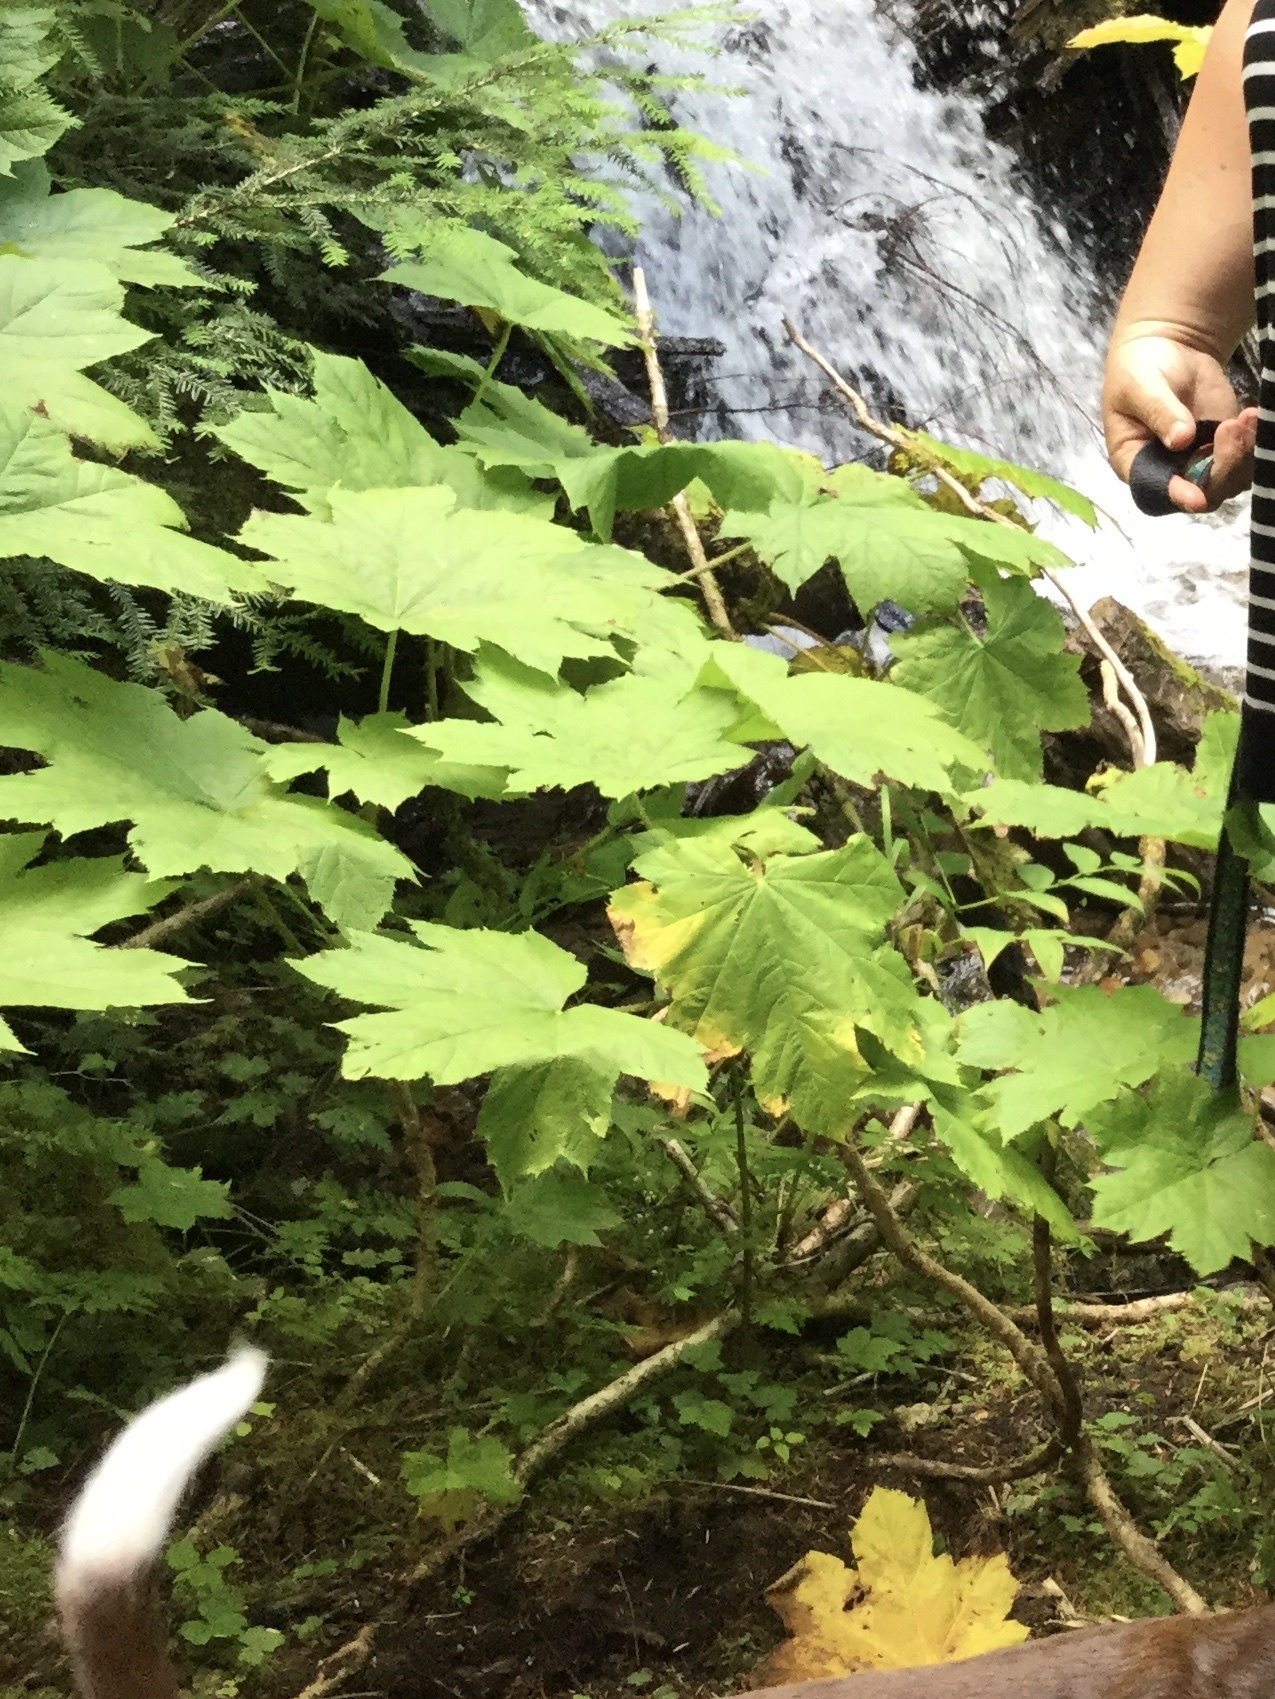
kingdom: Plantae
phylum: Tracheophyta
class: Magnoliopsida
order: Apiales
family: Araliaceae
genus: Oplopanax
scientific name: Oplopanax horridus
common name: Devil's walking-stick
